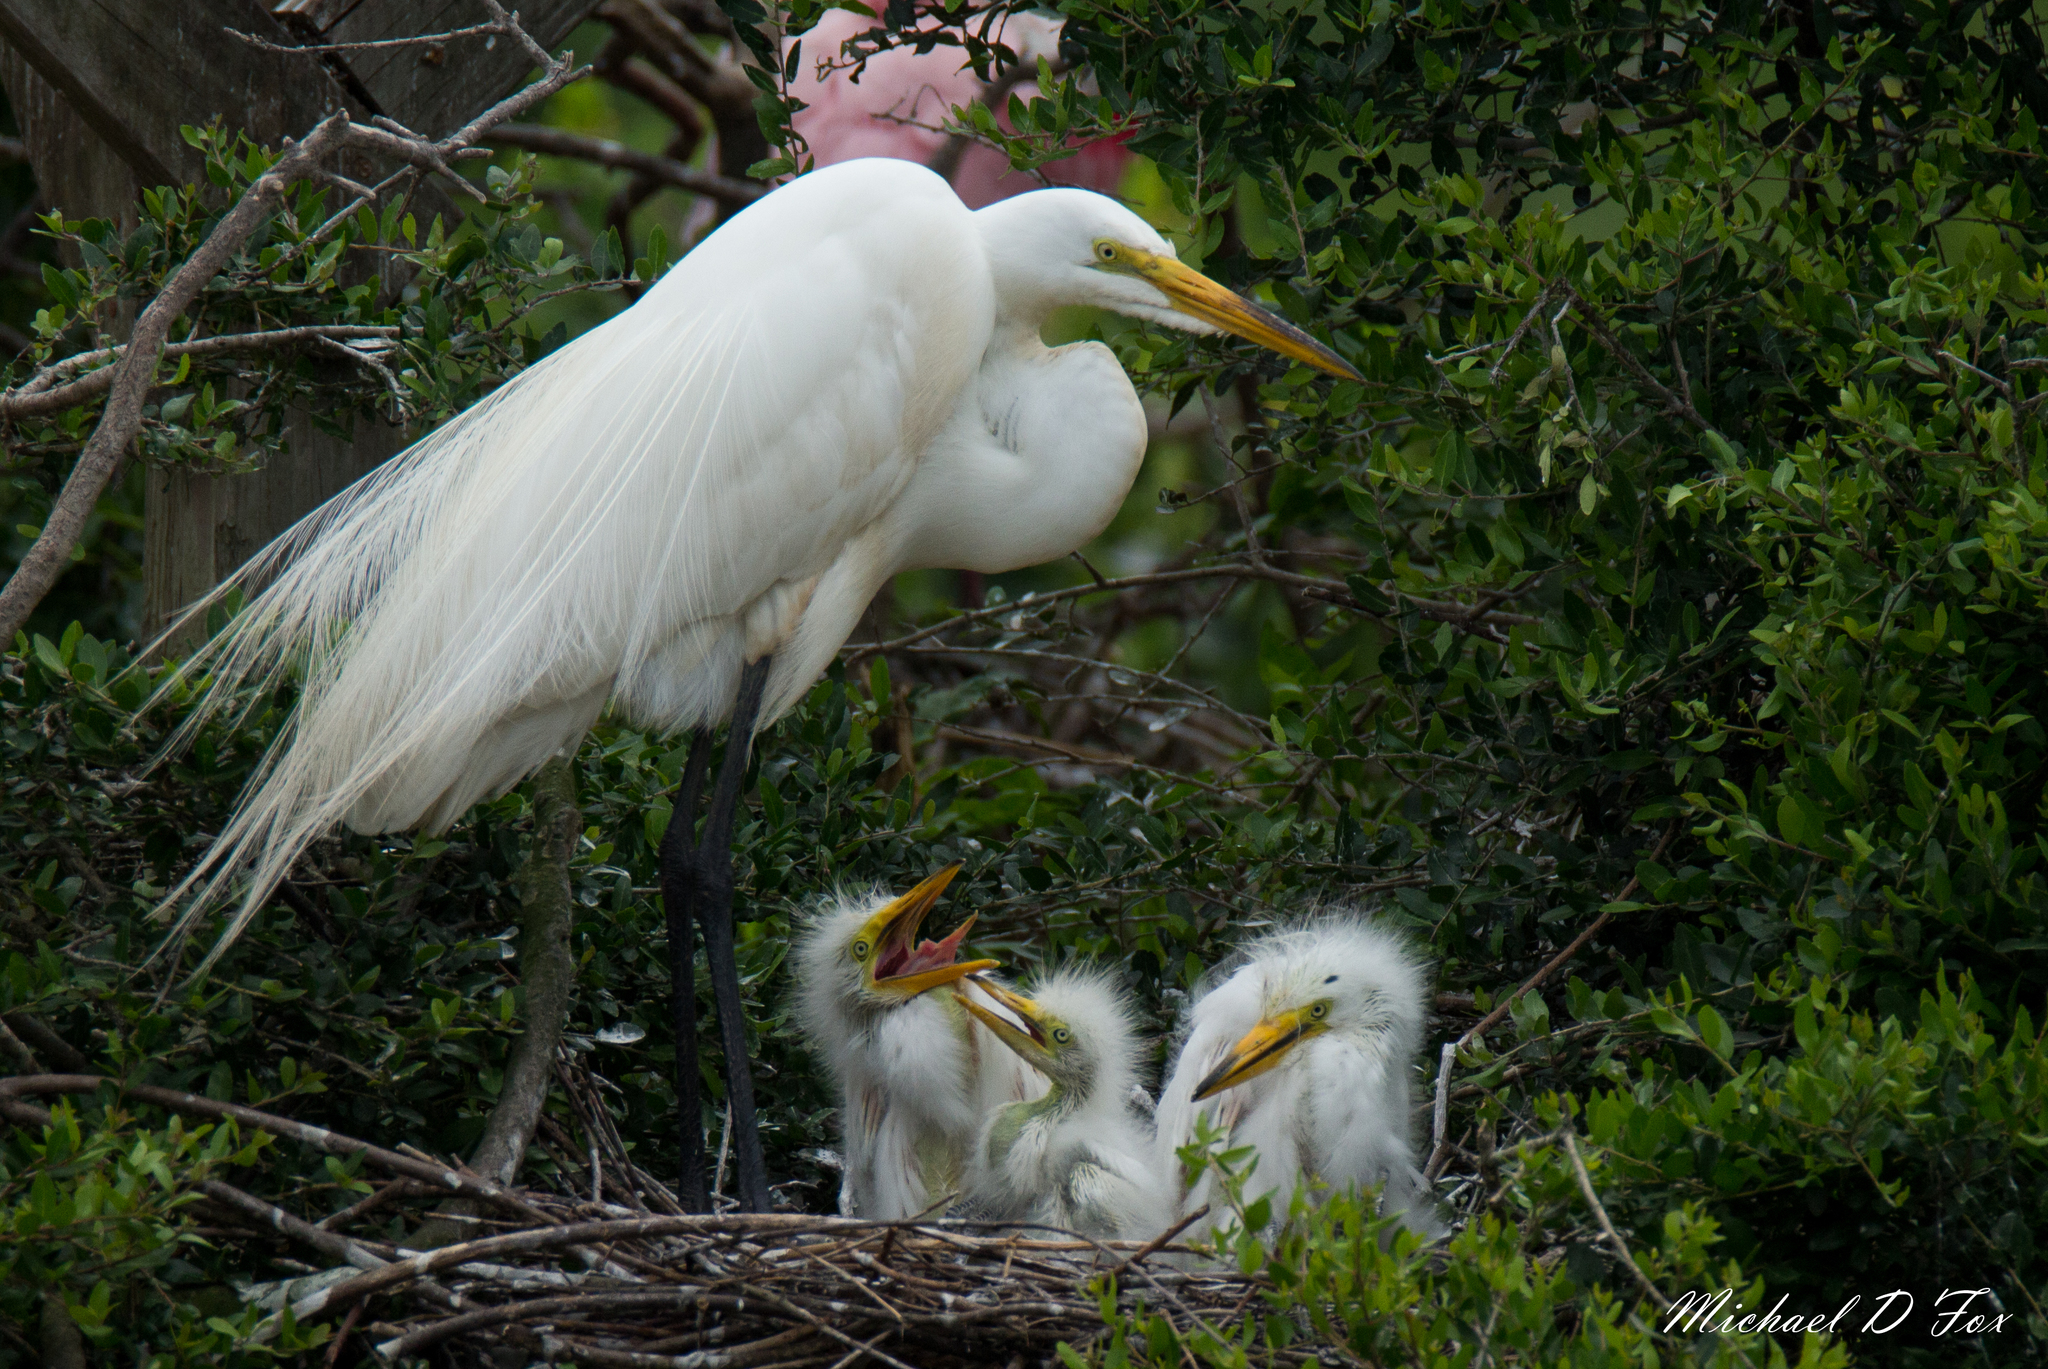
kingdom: Animalia
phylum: Chordata
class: Aves
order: Pelecaniformes
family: Ardeidae
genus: Ardea
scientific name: Ardea alba
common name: Great egret
